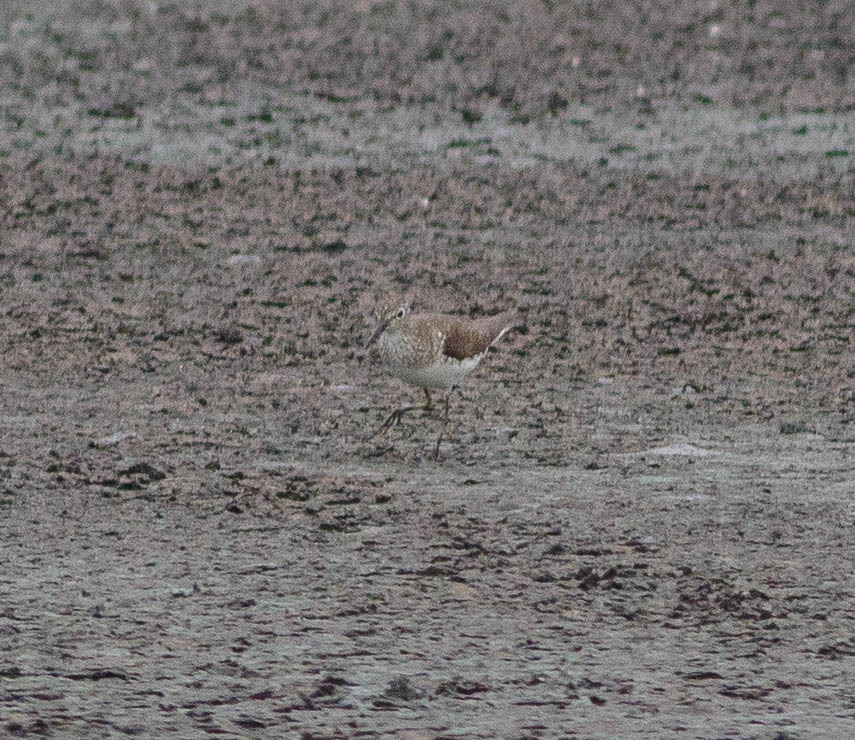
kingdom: Animalia
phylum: Chordata
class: Aves
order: Charadriiformes
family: Scolopacidae
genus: Tringa
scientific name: Tringa solitaria
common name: Solitary sandpiper
